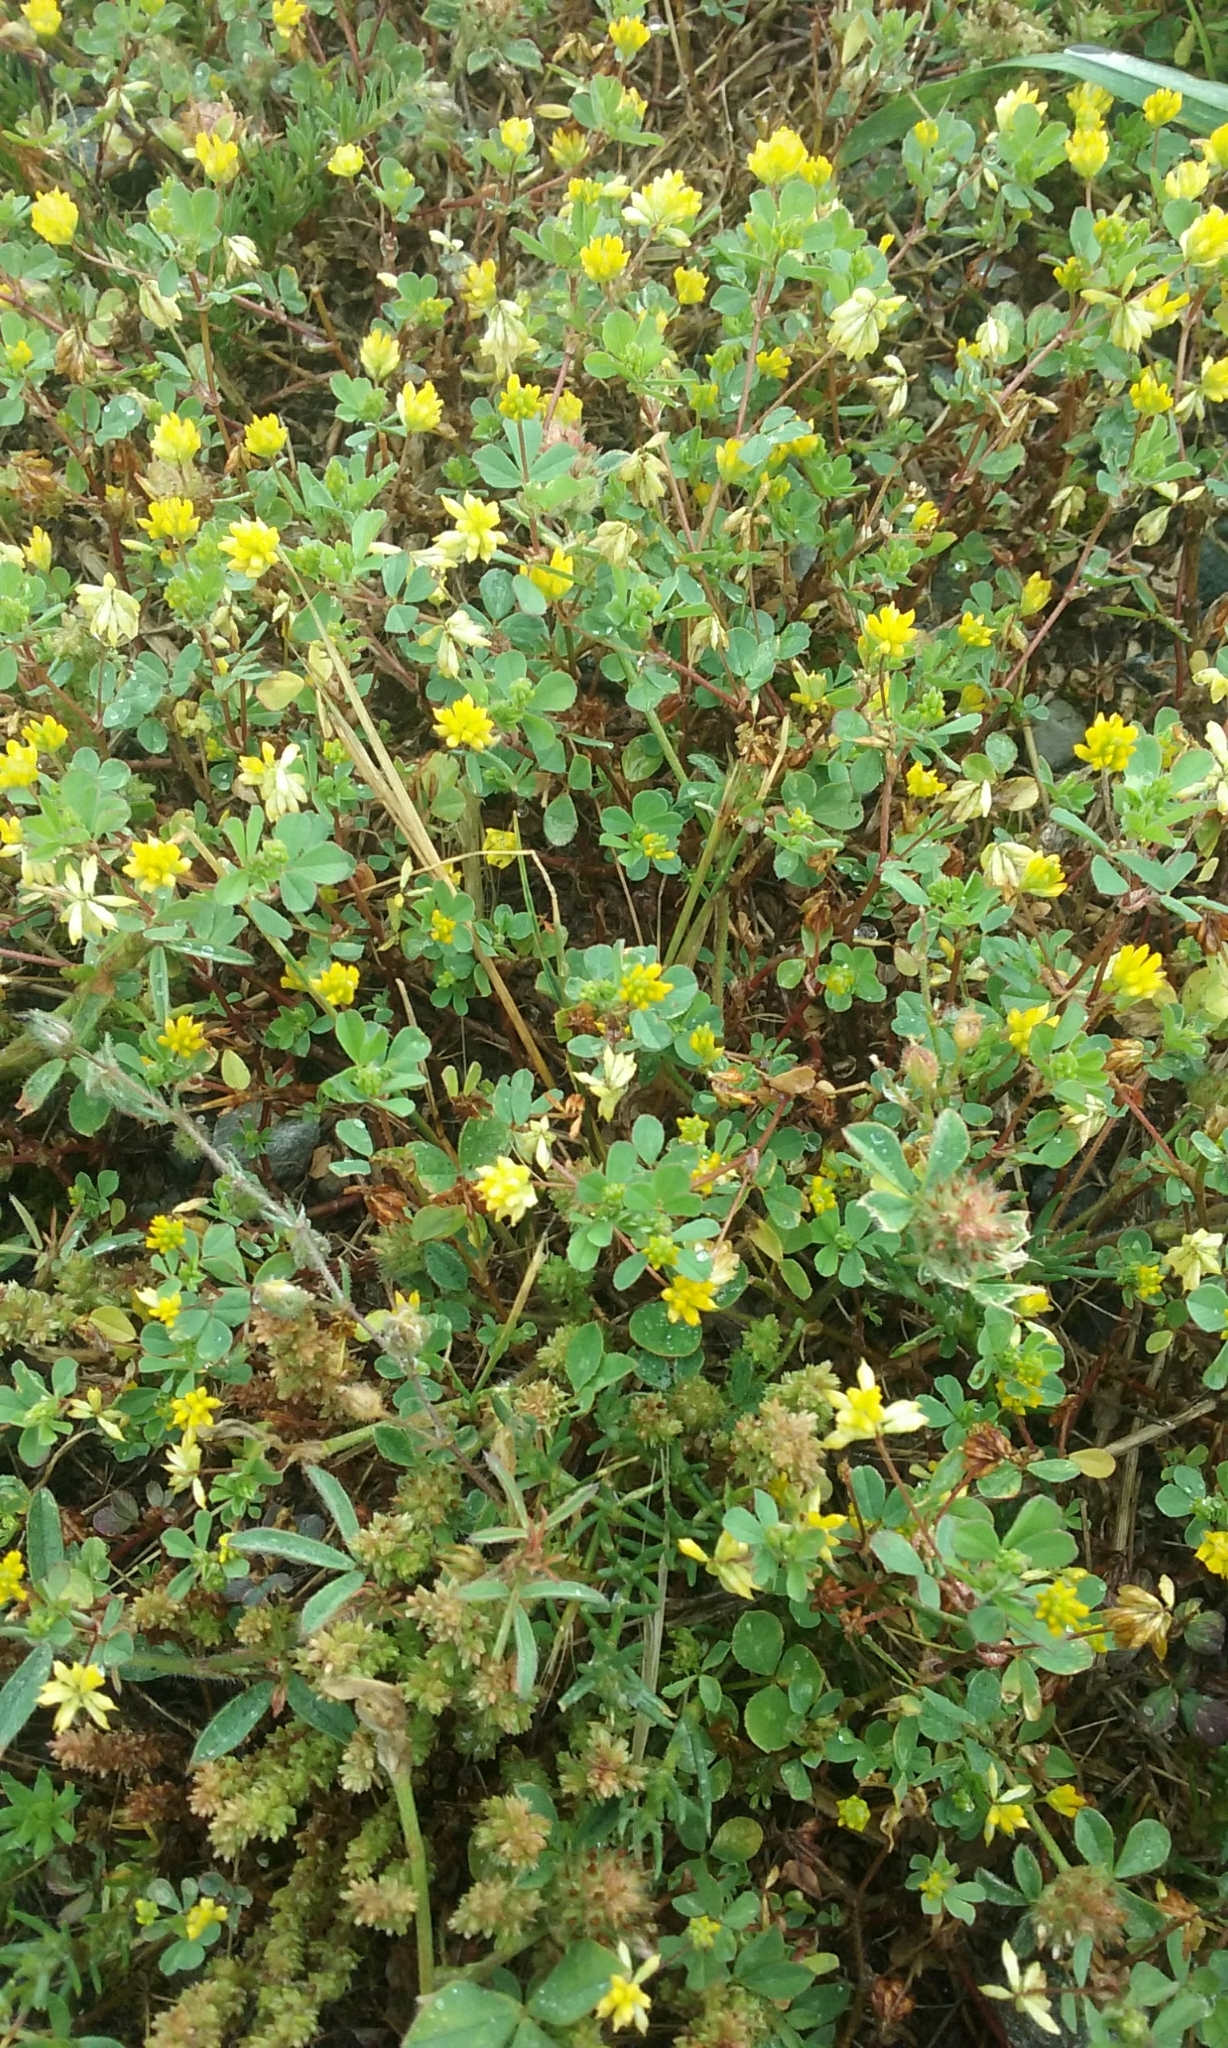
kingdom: Plantae
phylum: Tracheophyta
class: Magnoliopsida
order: Fabales
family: Fabaceae
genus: Trifolium
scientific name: Trifolium dubium
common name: Suckling clover
